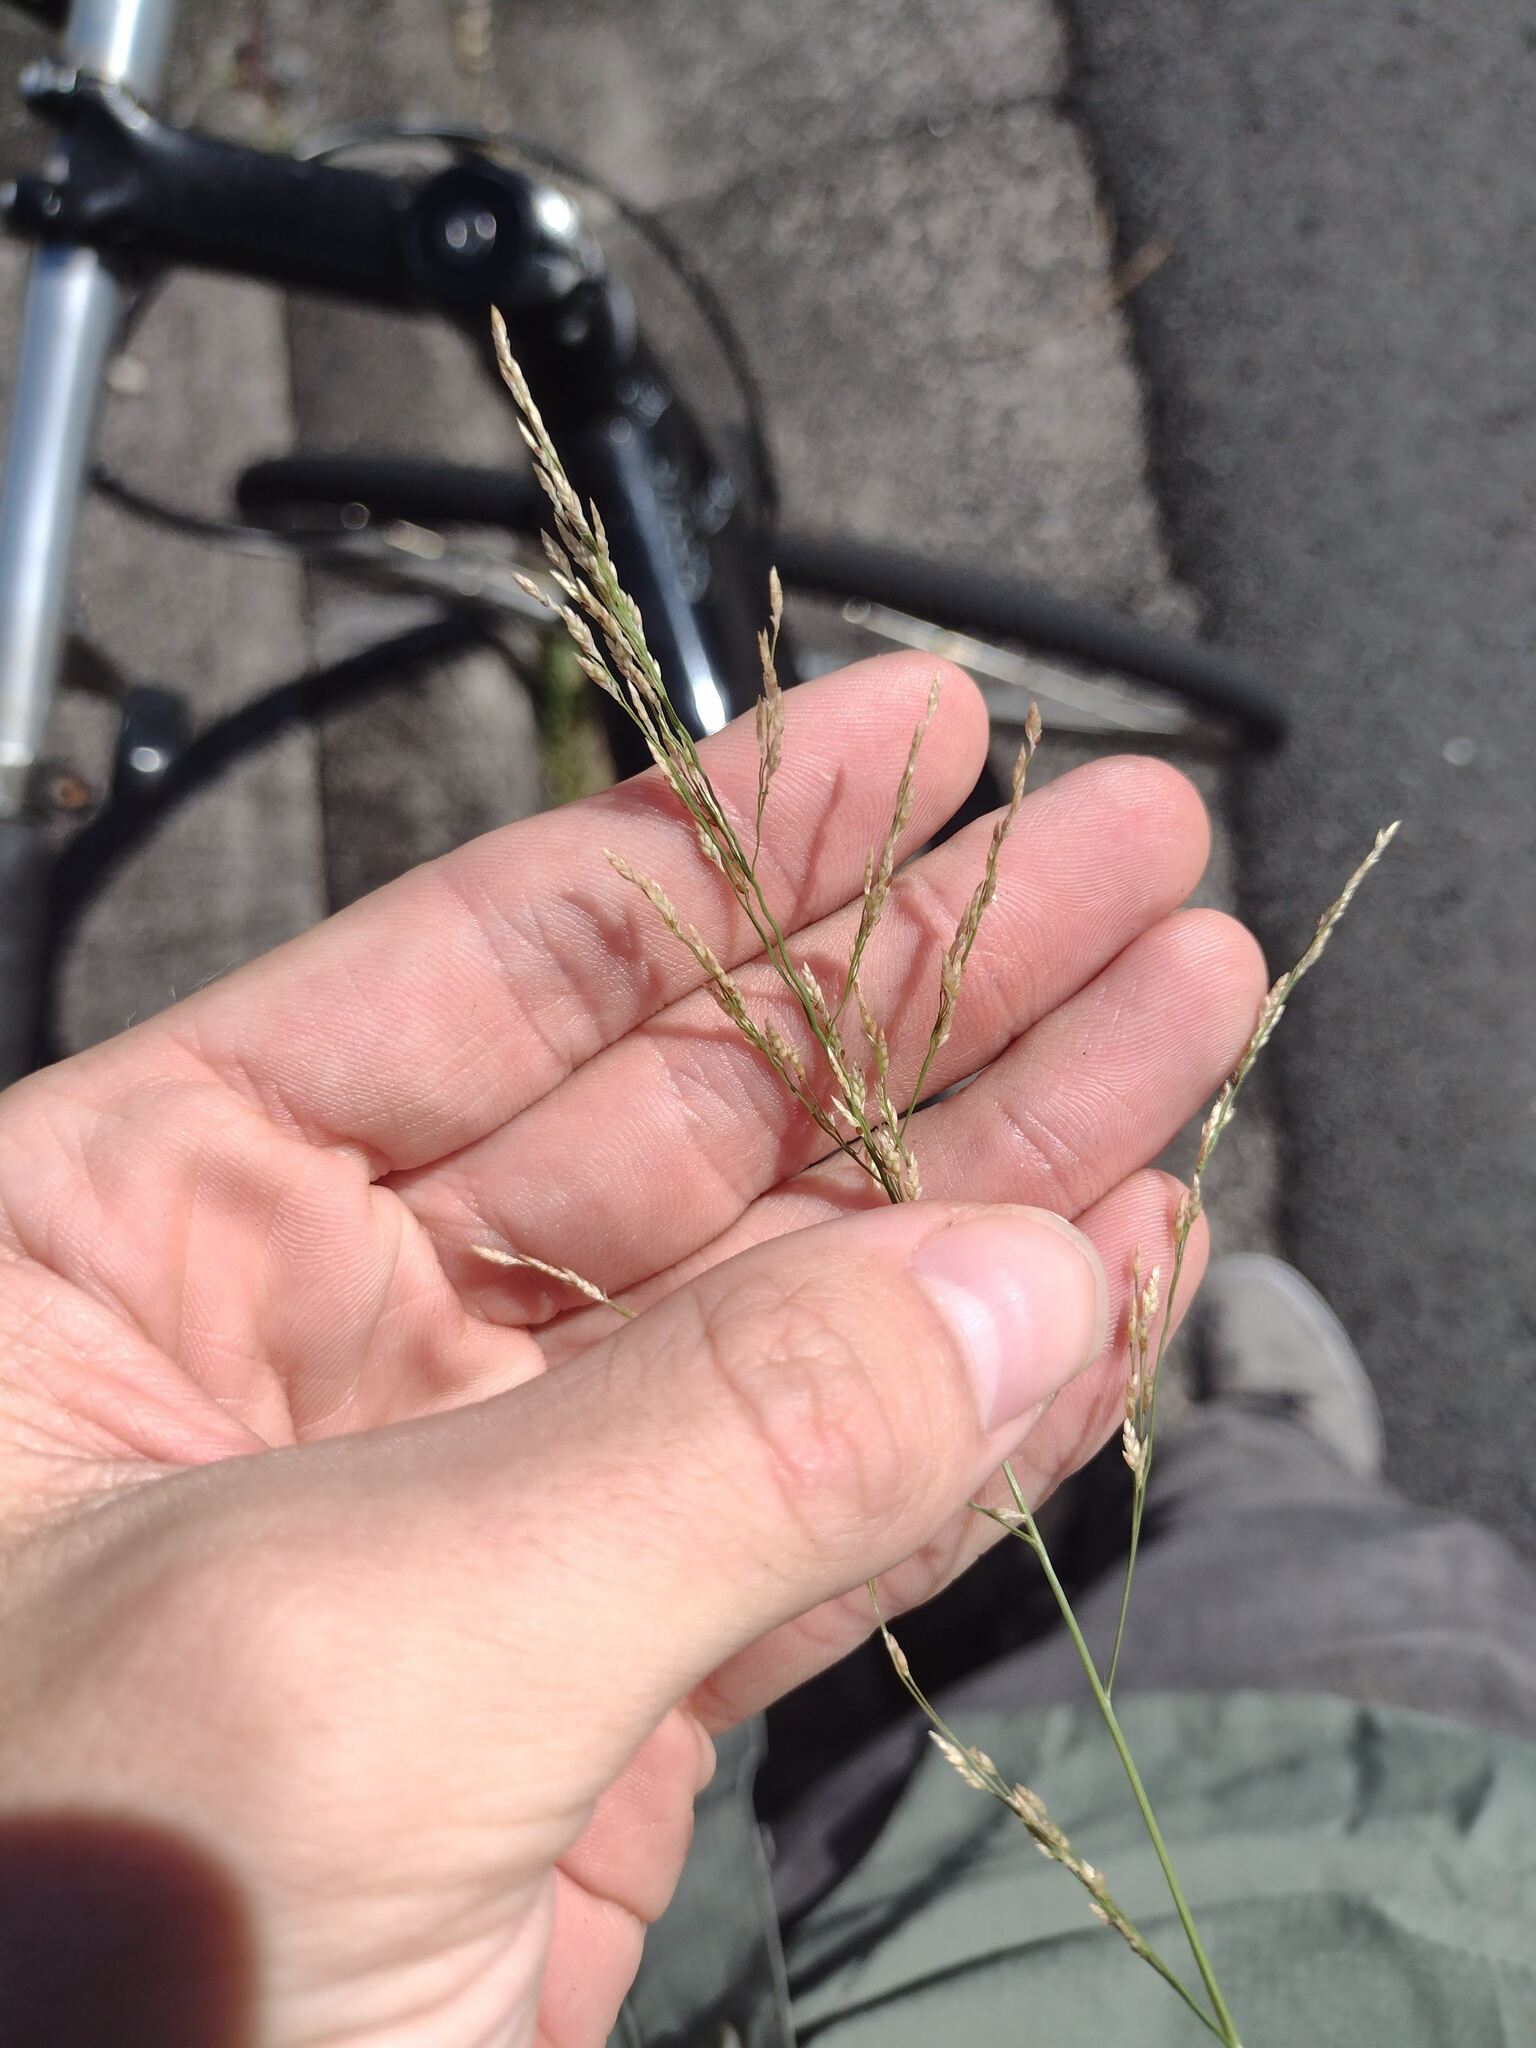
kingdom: Plantae
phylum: Tracheophyta
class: Liliopsida
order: Poales
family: Poaceae
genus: Eragrostis
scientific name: Eragrostis pectinacea
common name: Tufted lovegrass
